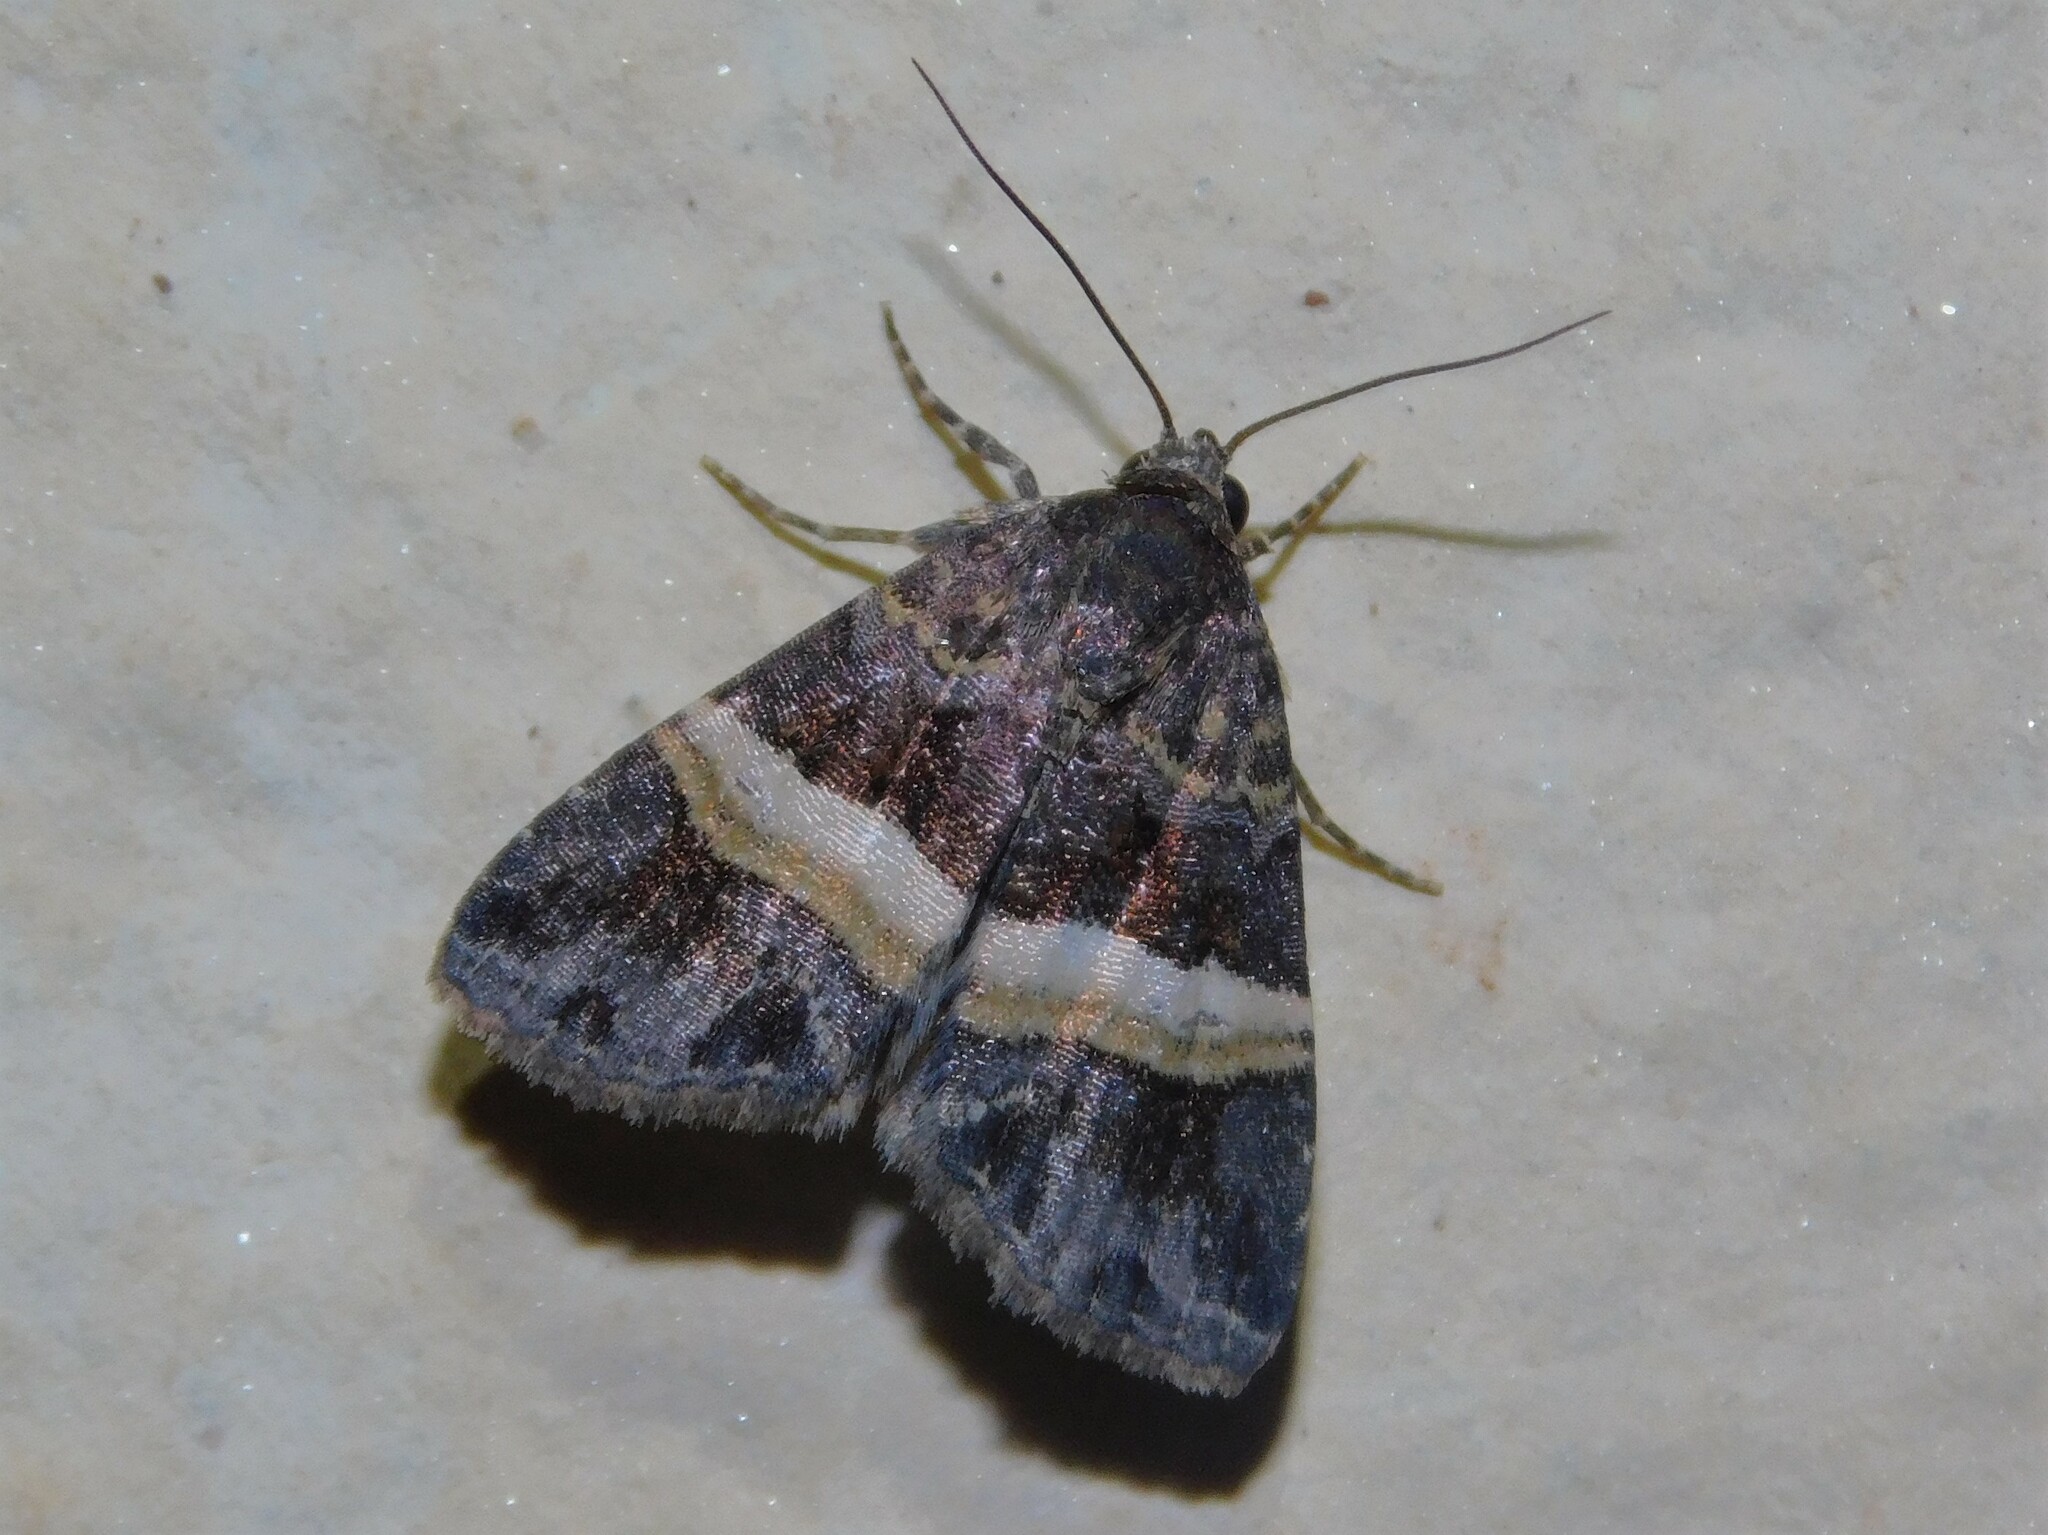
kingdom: Animalia
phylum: Arthropoda
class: Insecta
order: Lepidoptera
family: Noctuidae
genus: Ozarba
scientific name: Ozarba domina
